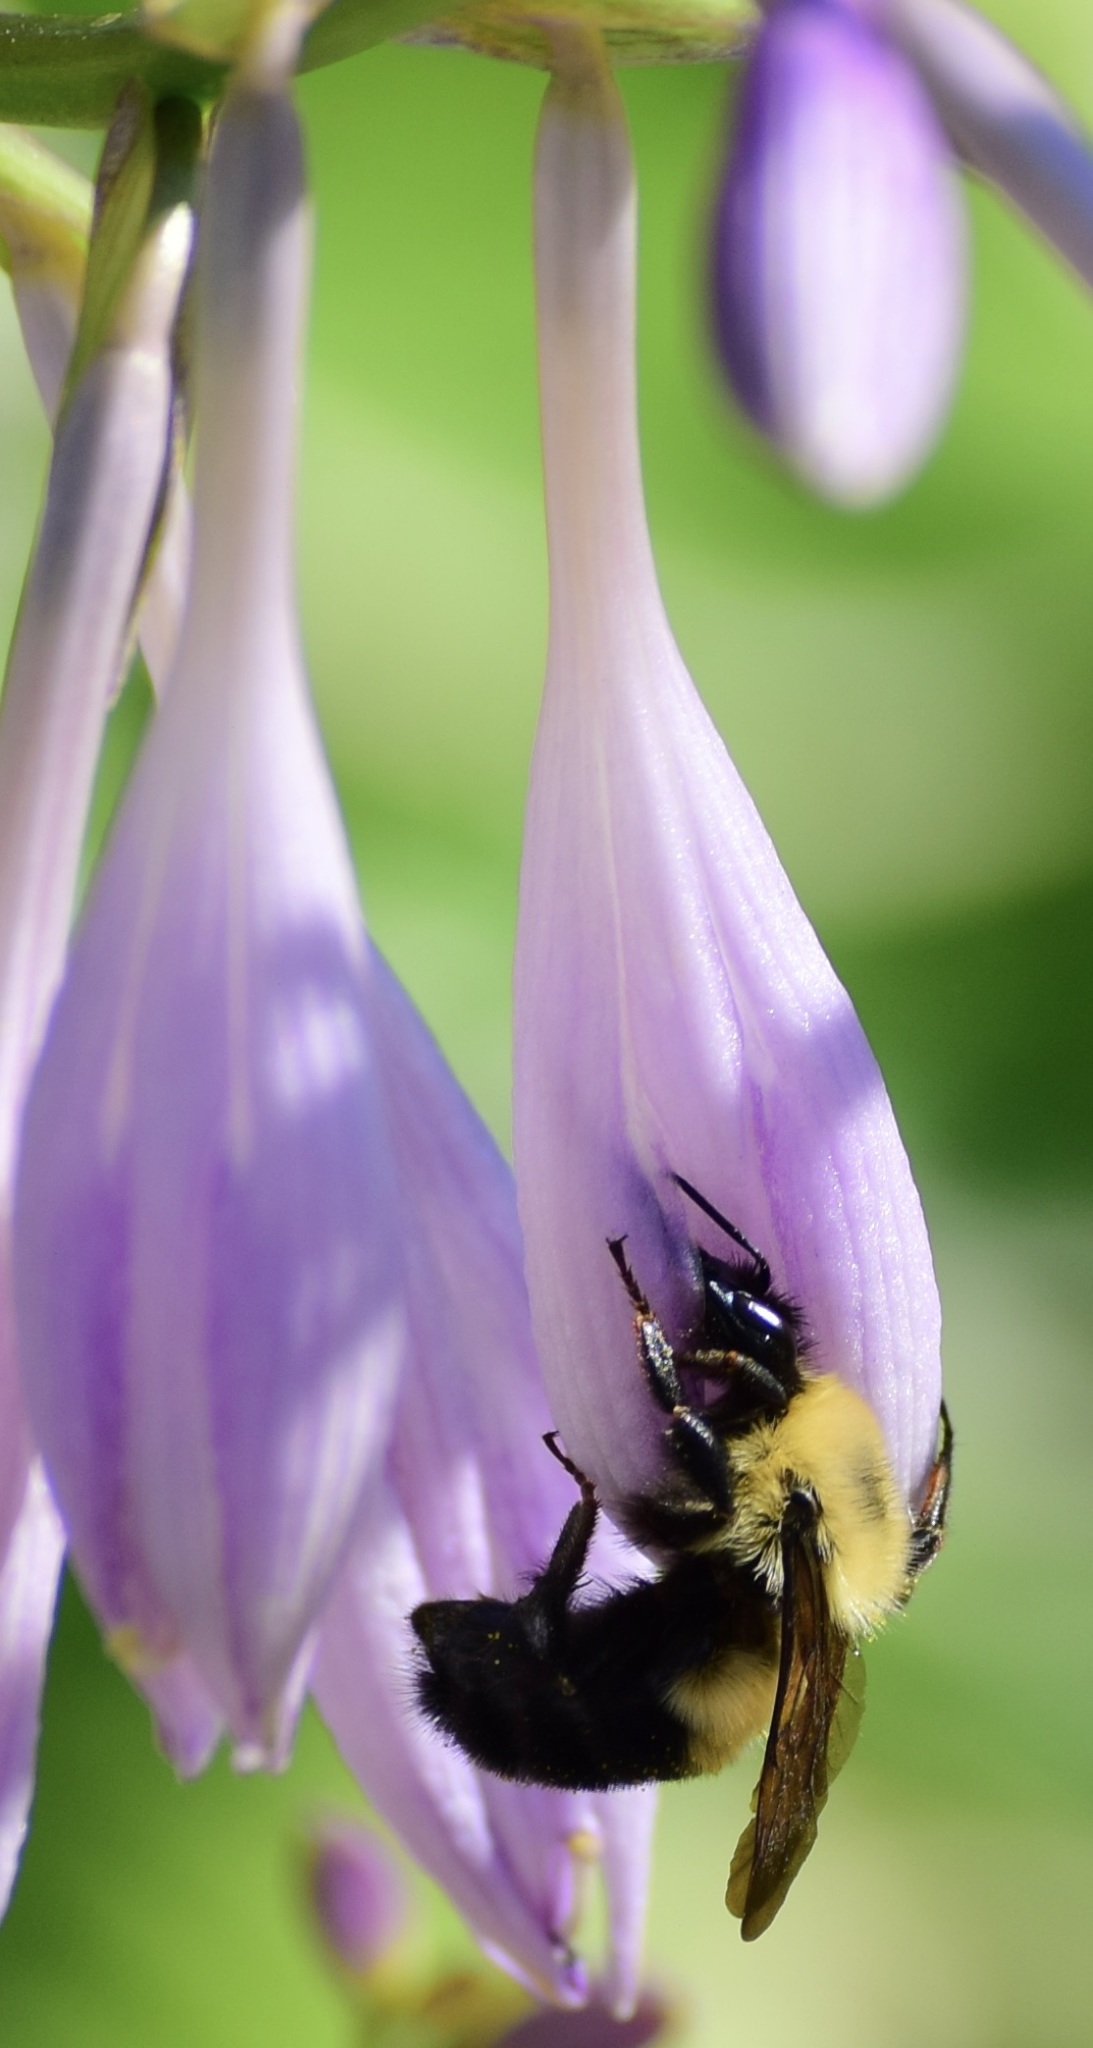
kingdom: Animalia
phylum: Arthropoda
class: Insecta
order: Hymenoptera
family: Apidae
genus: Bombus
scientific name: Bombus bimaculatus
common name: Two-spotted bumble bee
